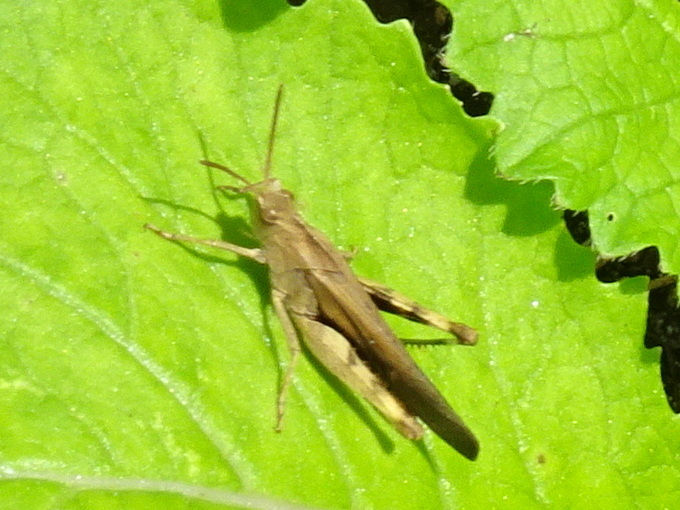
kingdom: Animalia
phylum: Arthropoda
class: Insecta
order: Orthoptera
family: Acrididae
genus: Chortophaga
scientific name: Chortophaga viridifasciata
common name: Green-striped grasshopper
